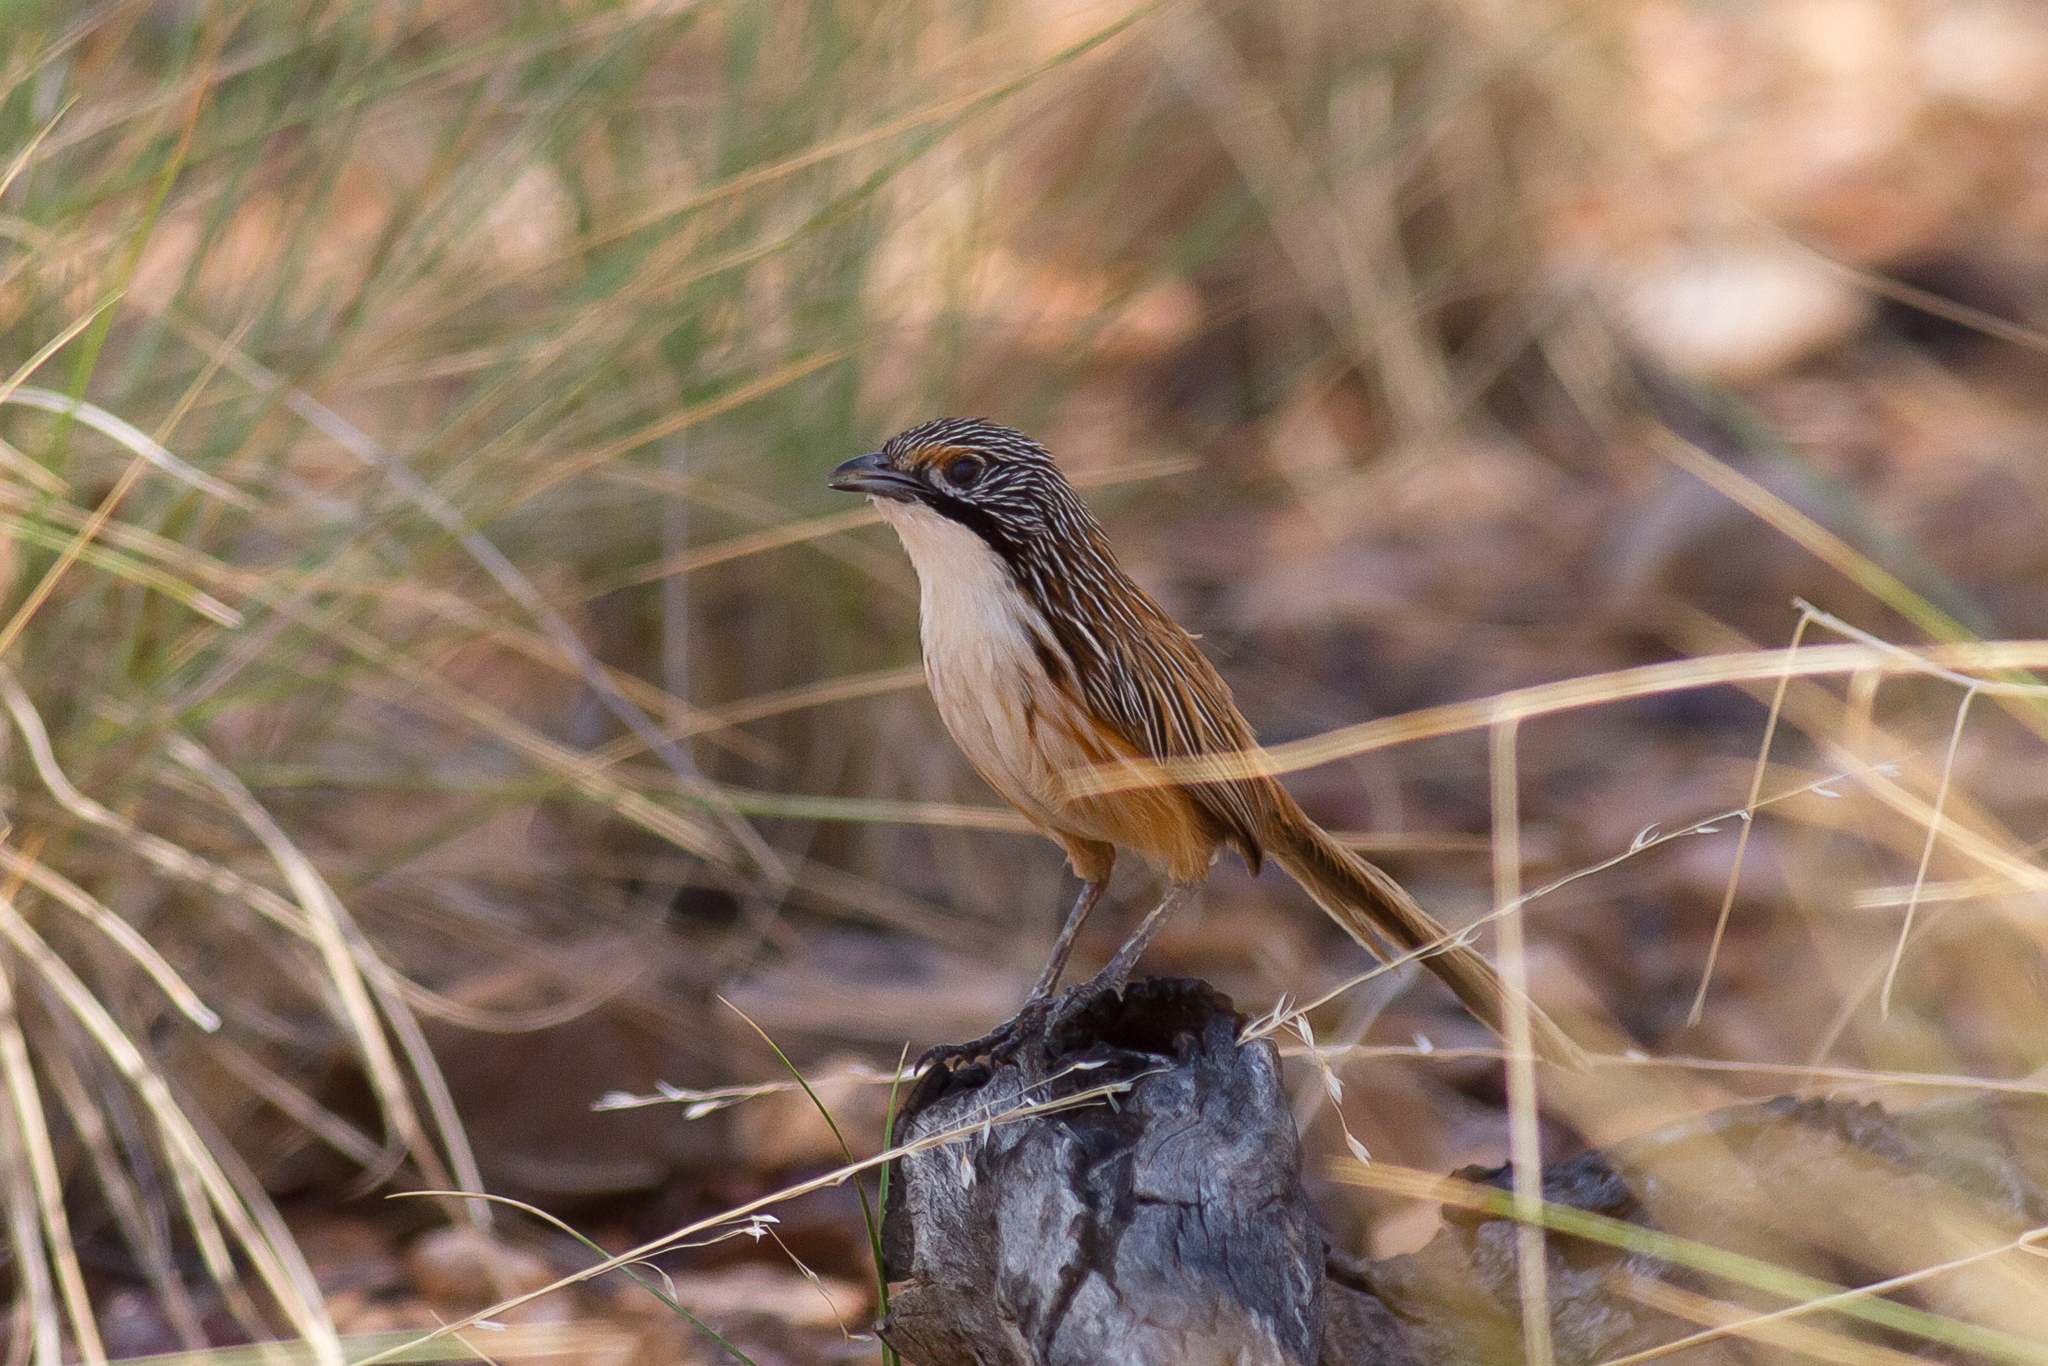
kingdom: Animalia
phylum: Chordata
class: Aves
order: Passeriformes
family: Maluridae
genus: Amytornis
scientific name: Amytornis dorotheae
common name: Carpentarian grasswren
